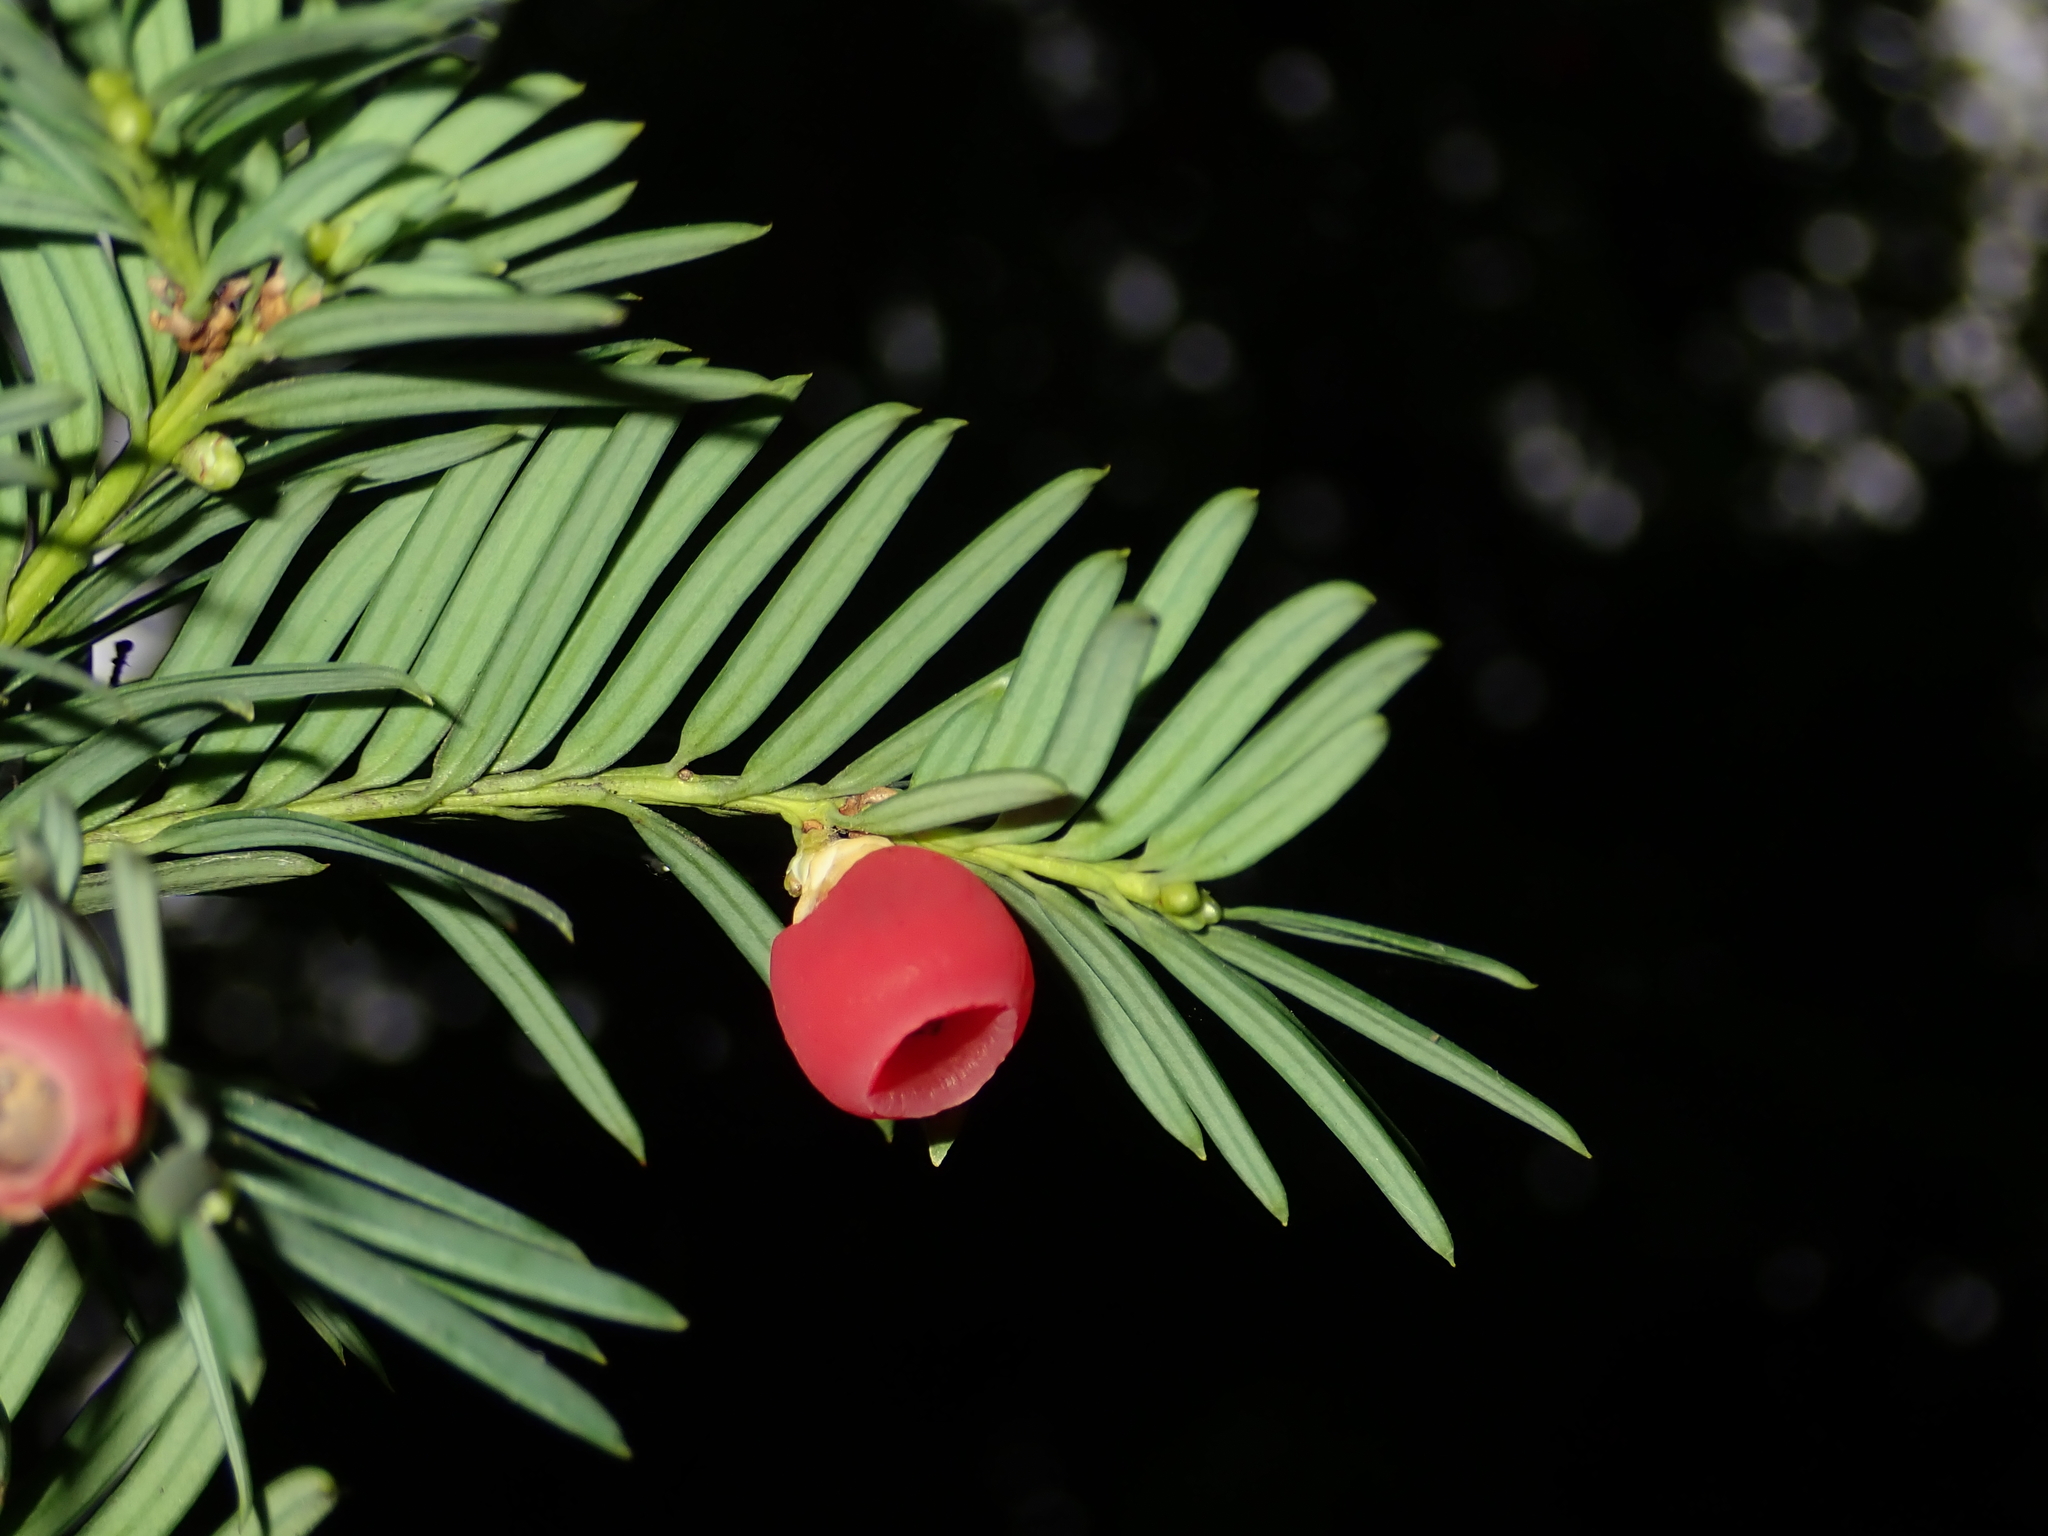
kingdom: Plantae
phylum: Tracheophyta
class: Pinopsida
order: Pinales
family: Taxaceae
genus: Taxus
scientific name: Taxus baccata
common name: Yew
